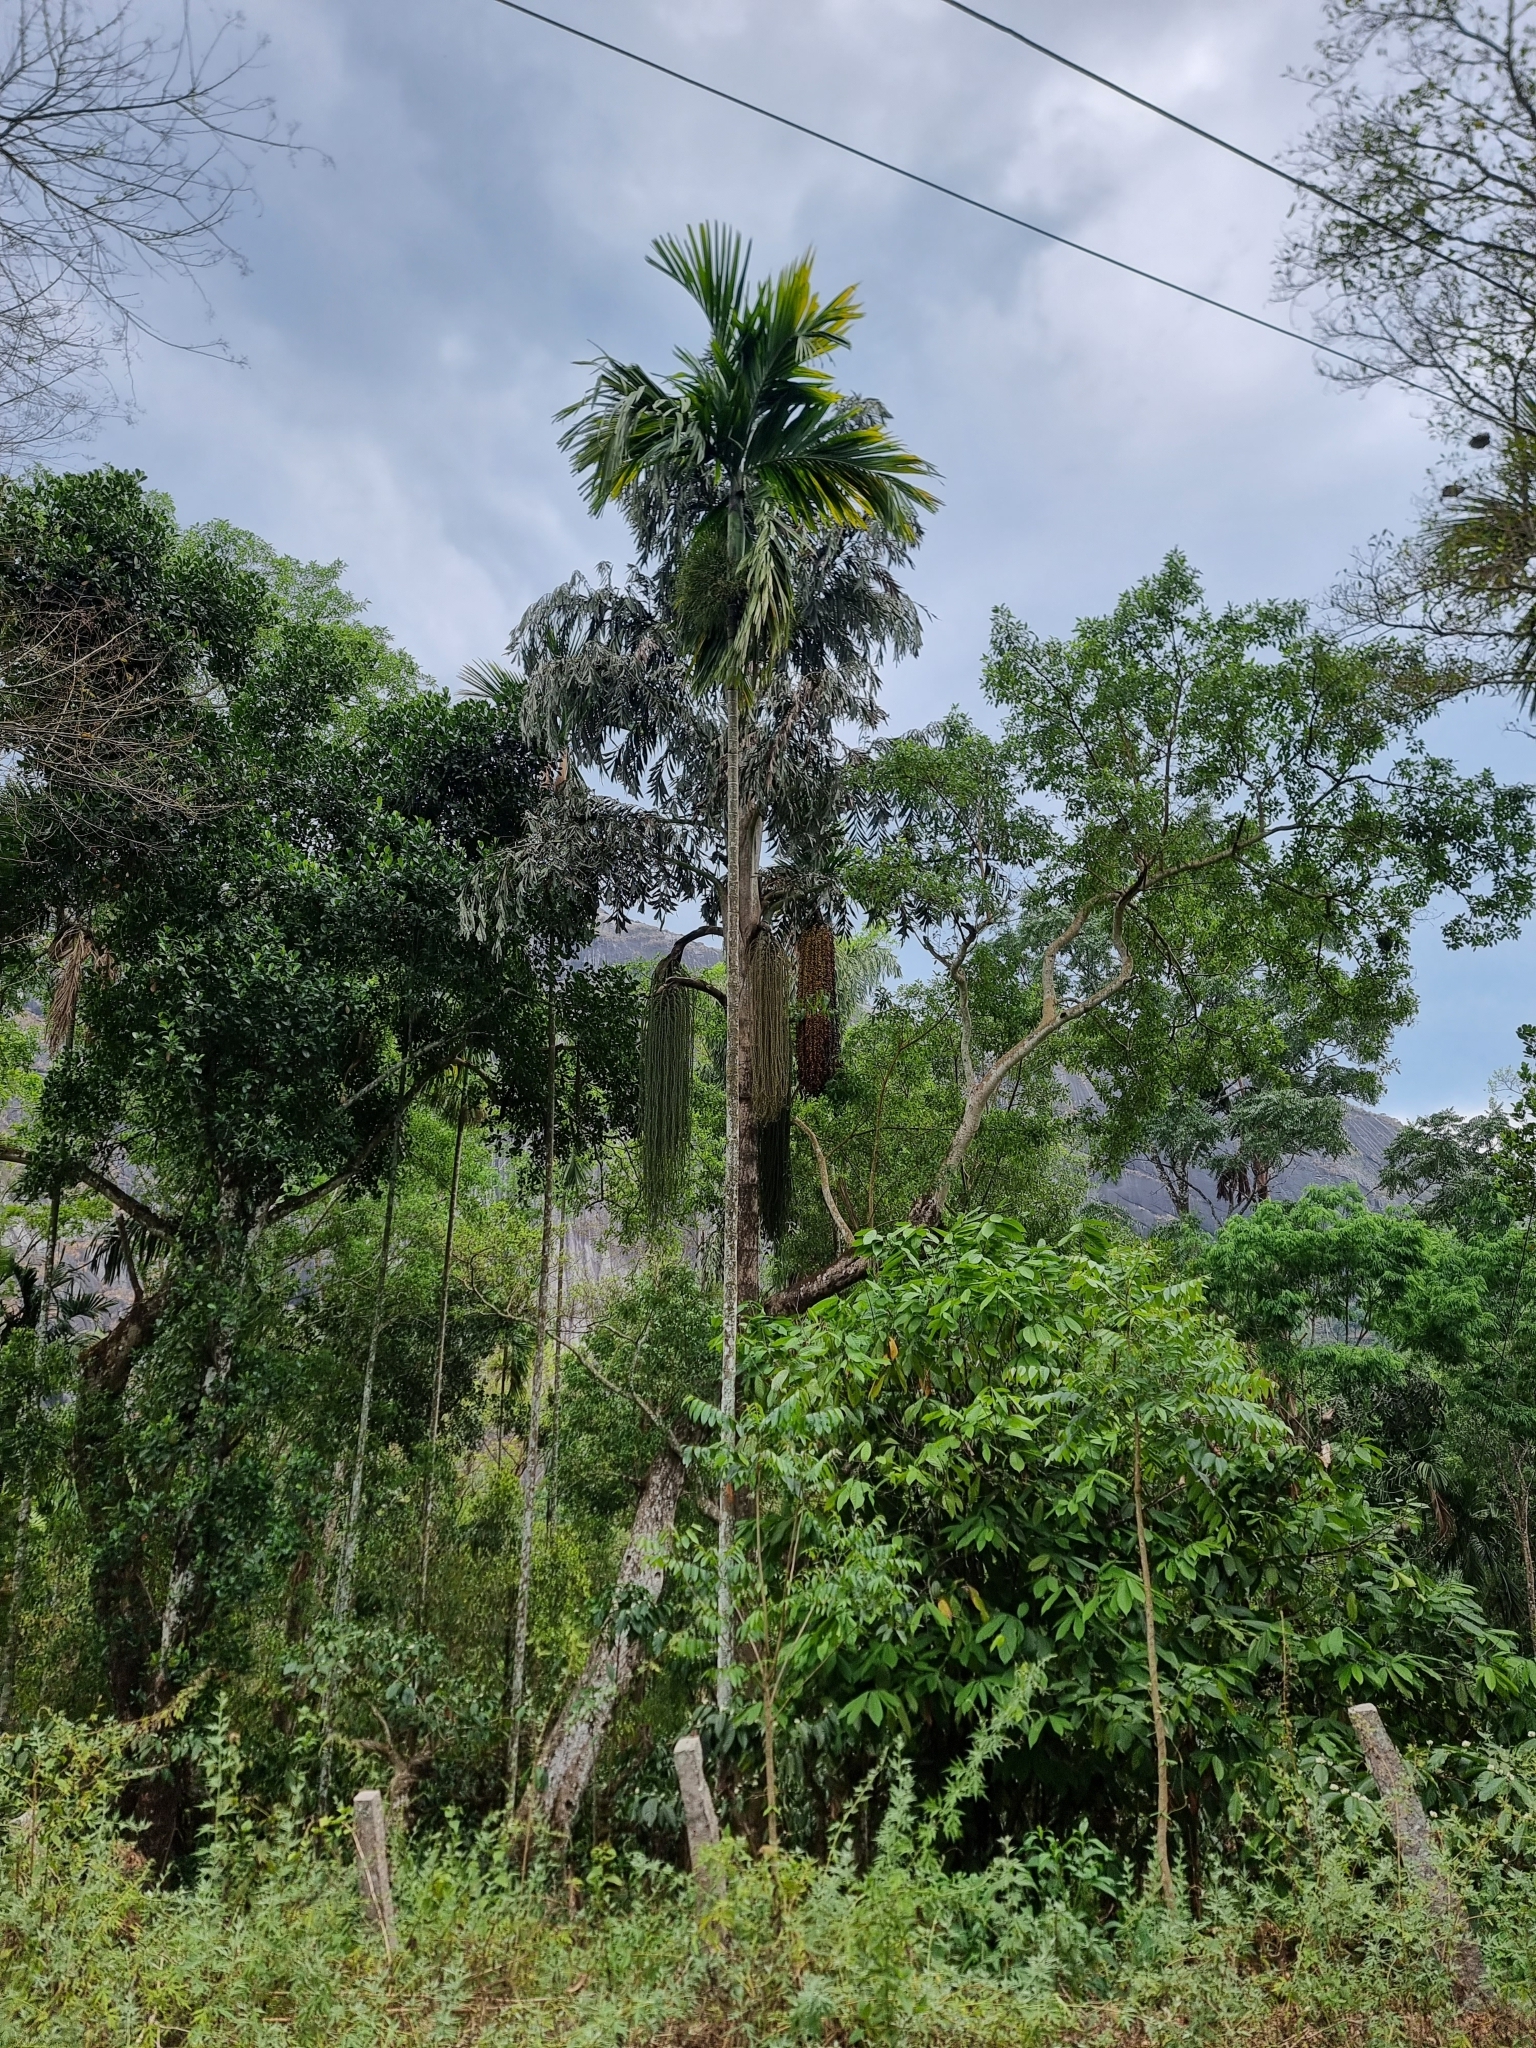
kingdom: Plantae
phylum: Tracheophyta
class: Liliopsida
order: Arecales
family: Arecaceae
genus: Caryota
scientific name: Caryota urens
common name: Jaggery palm
